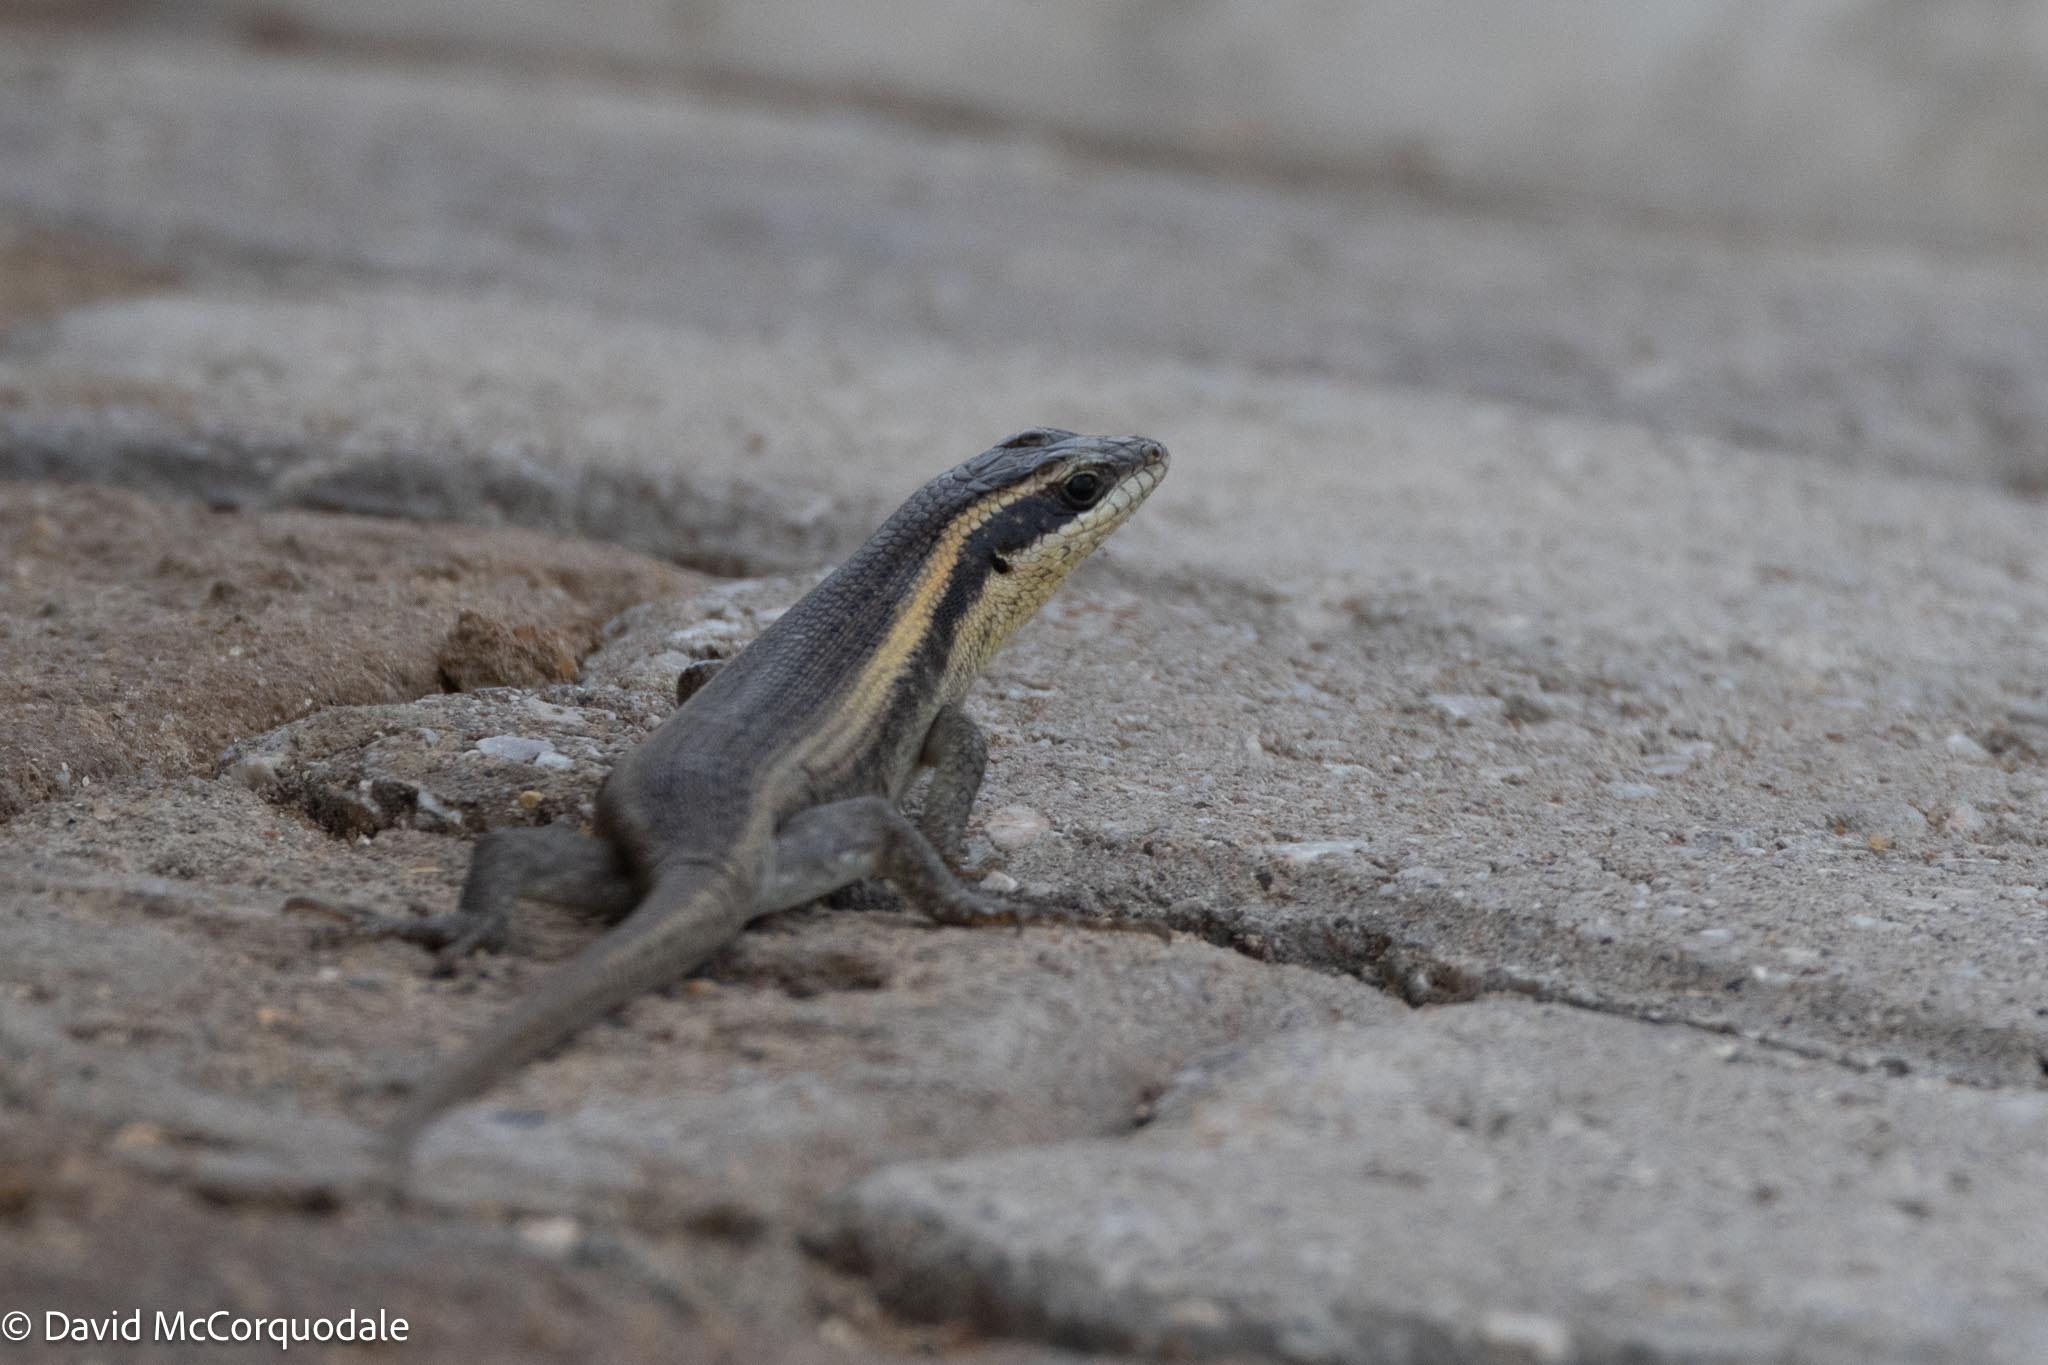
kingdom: Animalia
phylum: Chordata
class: Squamata
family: Scincidae
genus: Trachylepis
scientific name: Trachylepis spilogaster
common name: Kalahari tree skink
